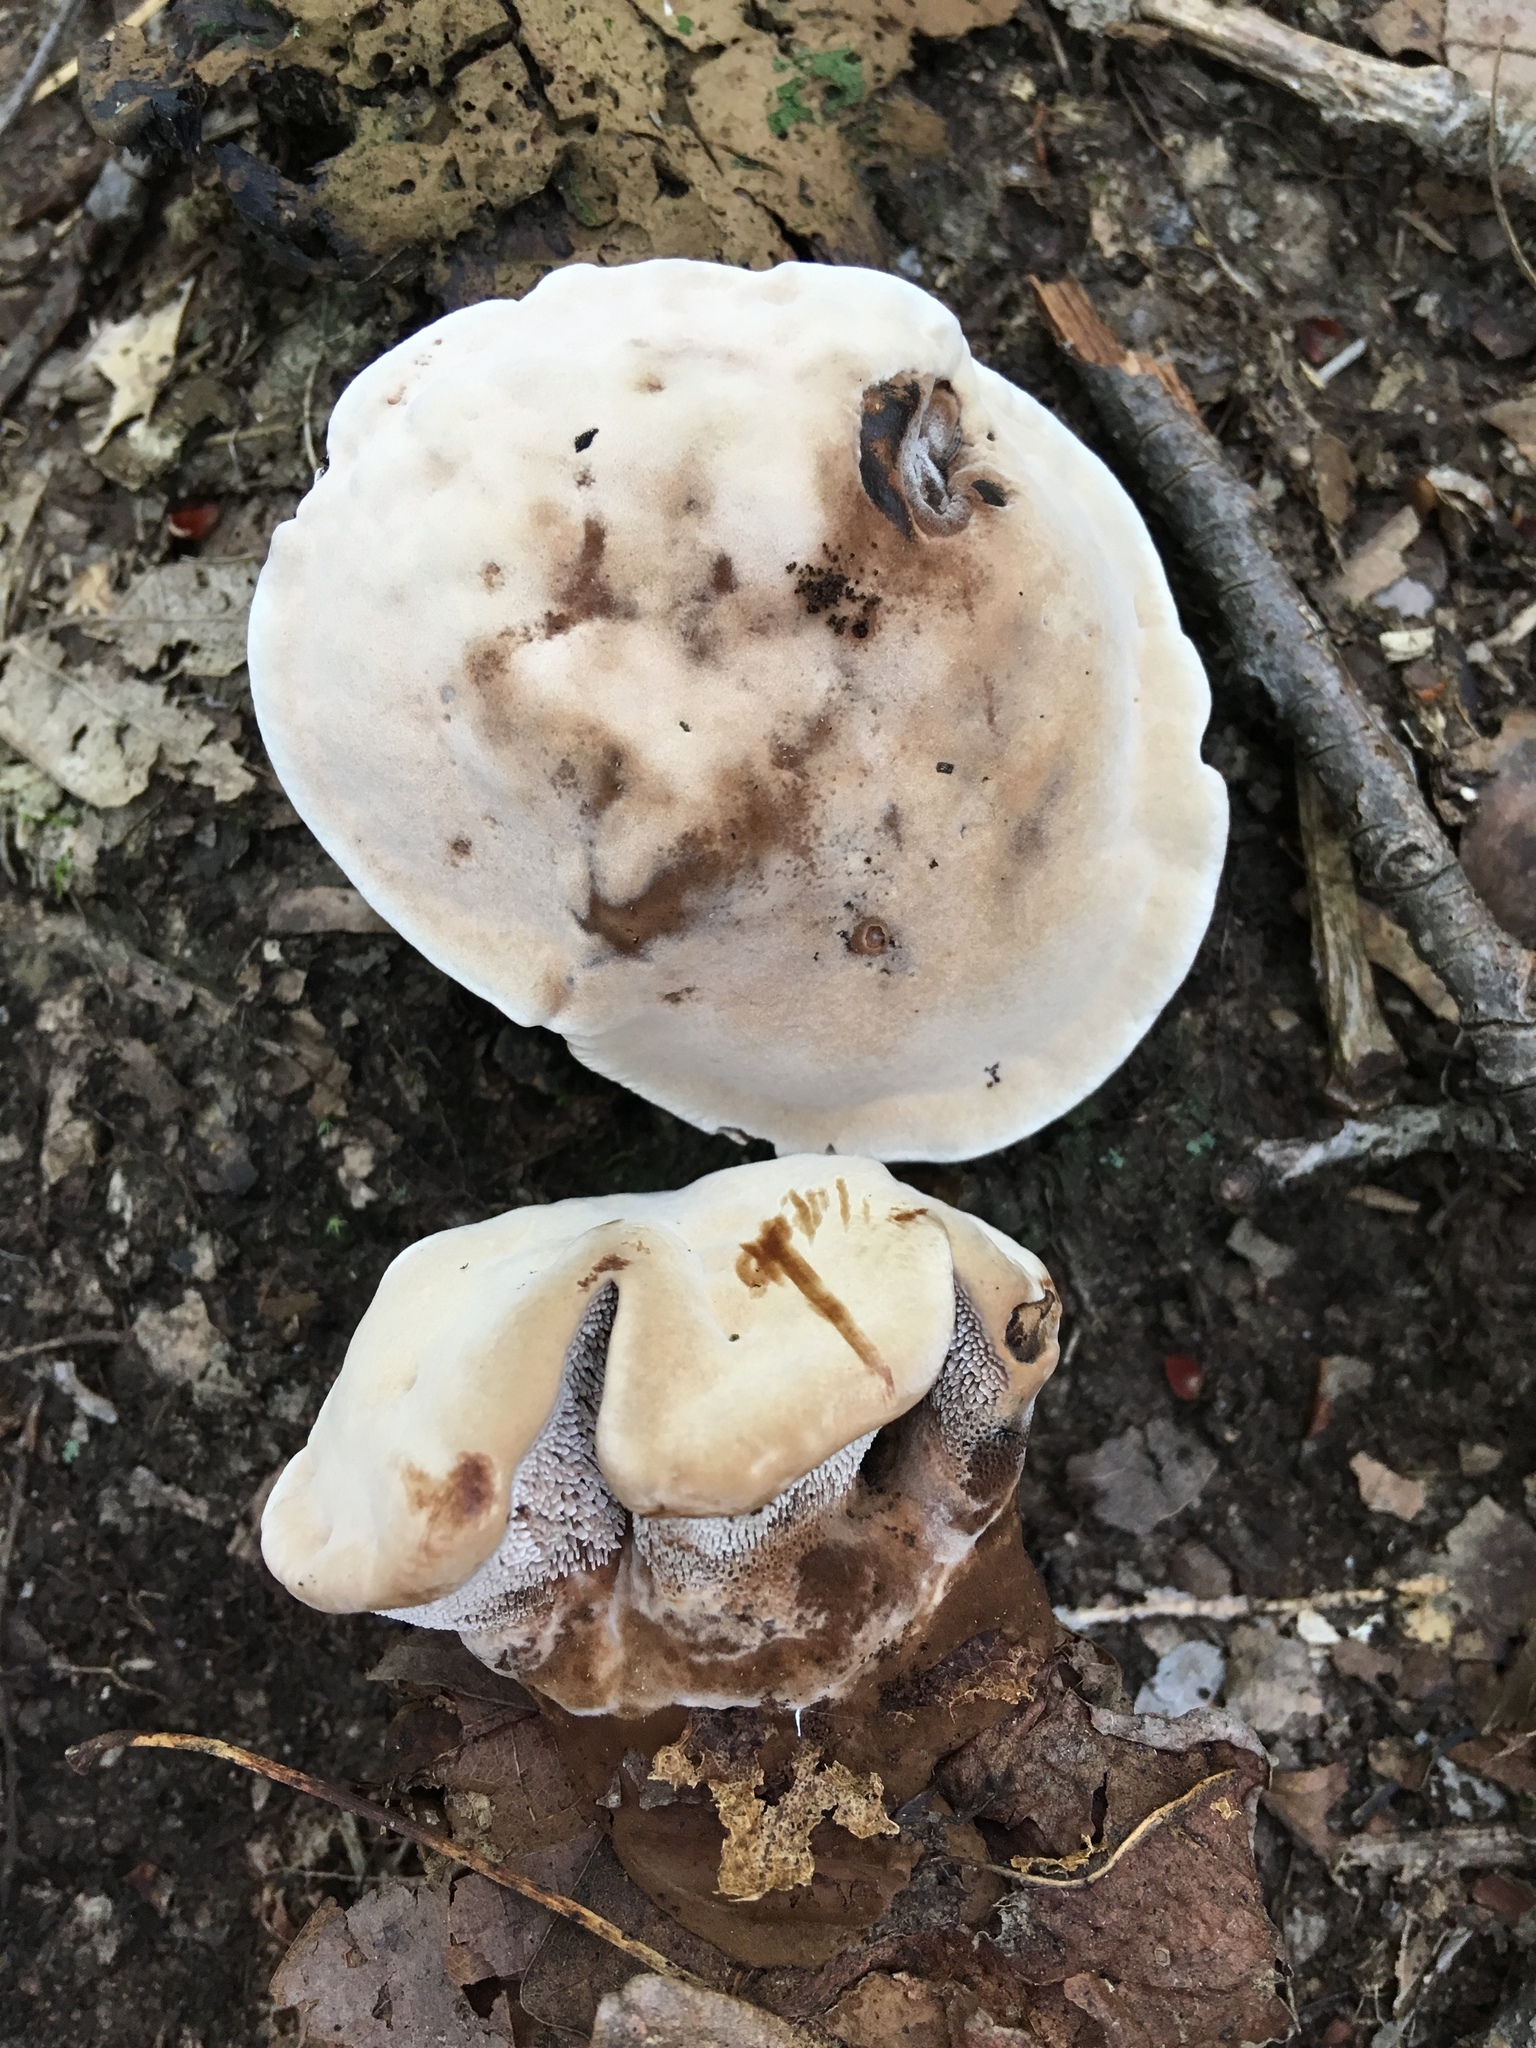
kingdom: Fungi
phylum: Basidiomycota
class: Agaricomycetes
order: Thelephorales
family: Bankeraceae
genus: Hydnellum
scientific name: Hydnellum spongiosipes
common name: Velvet tooth
